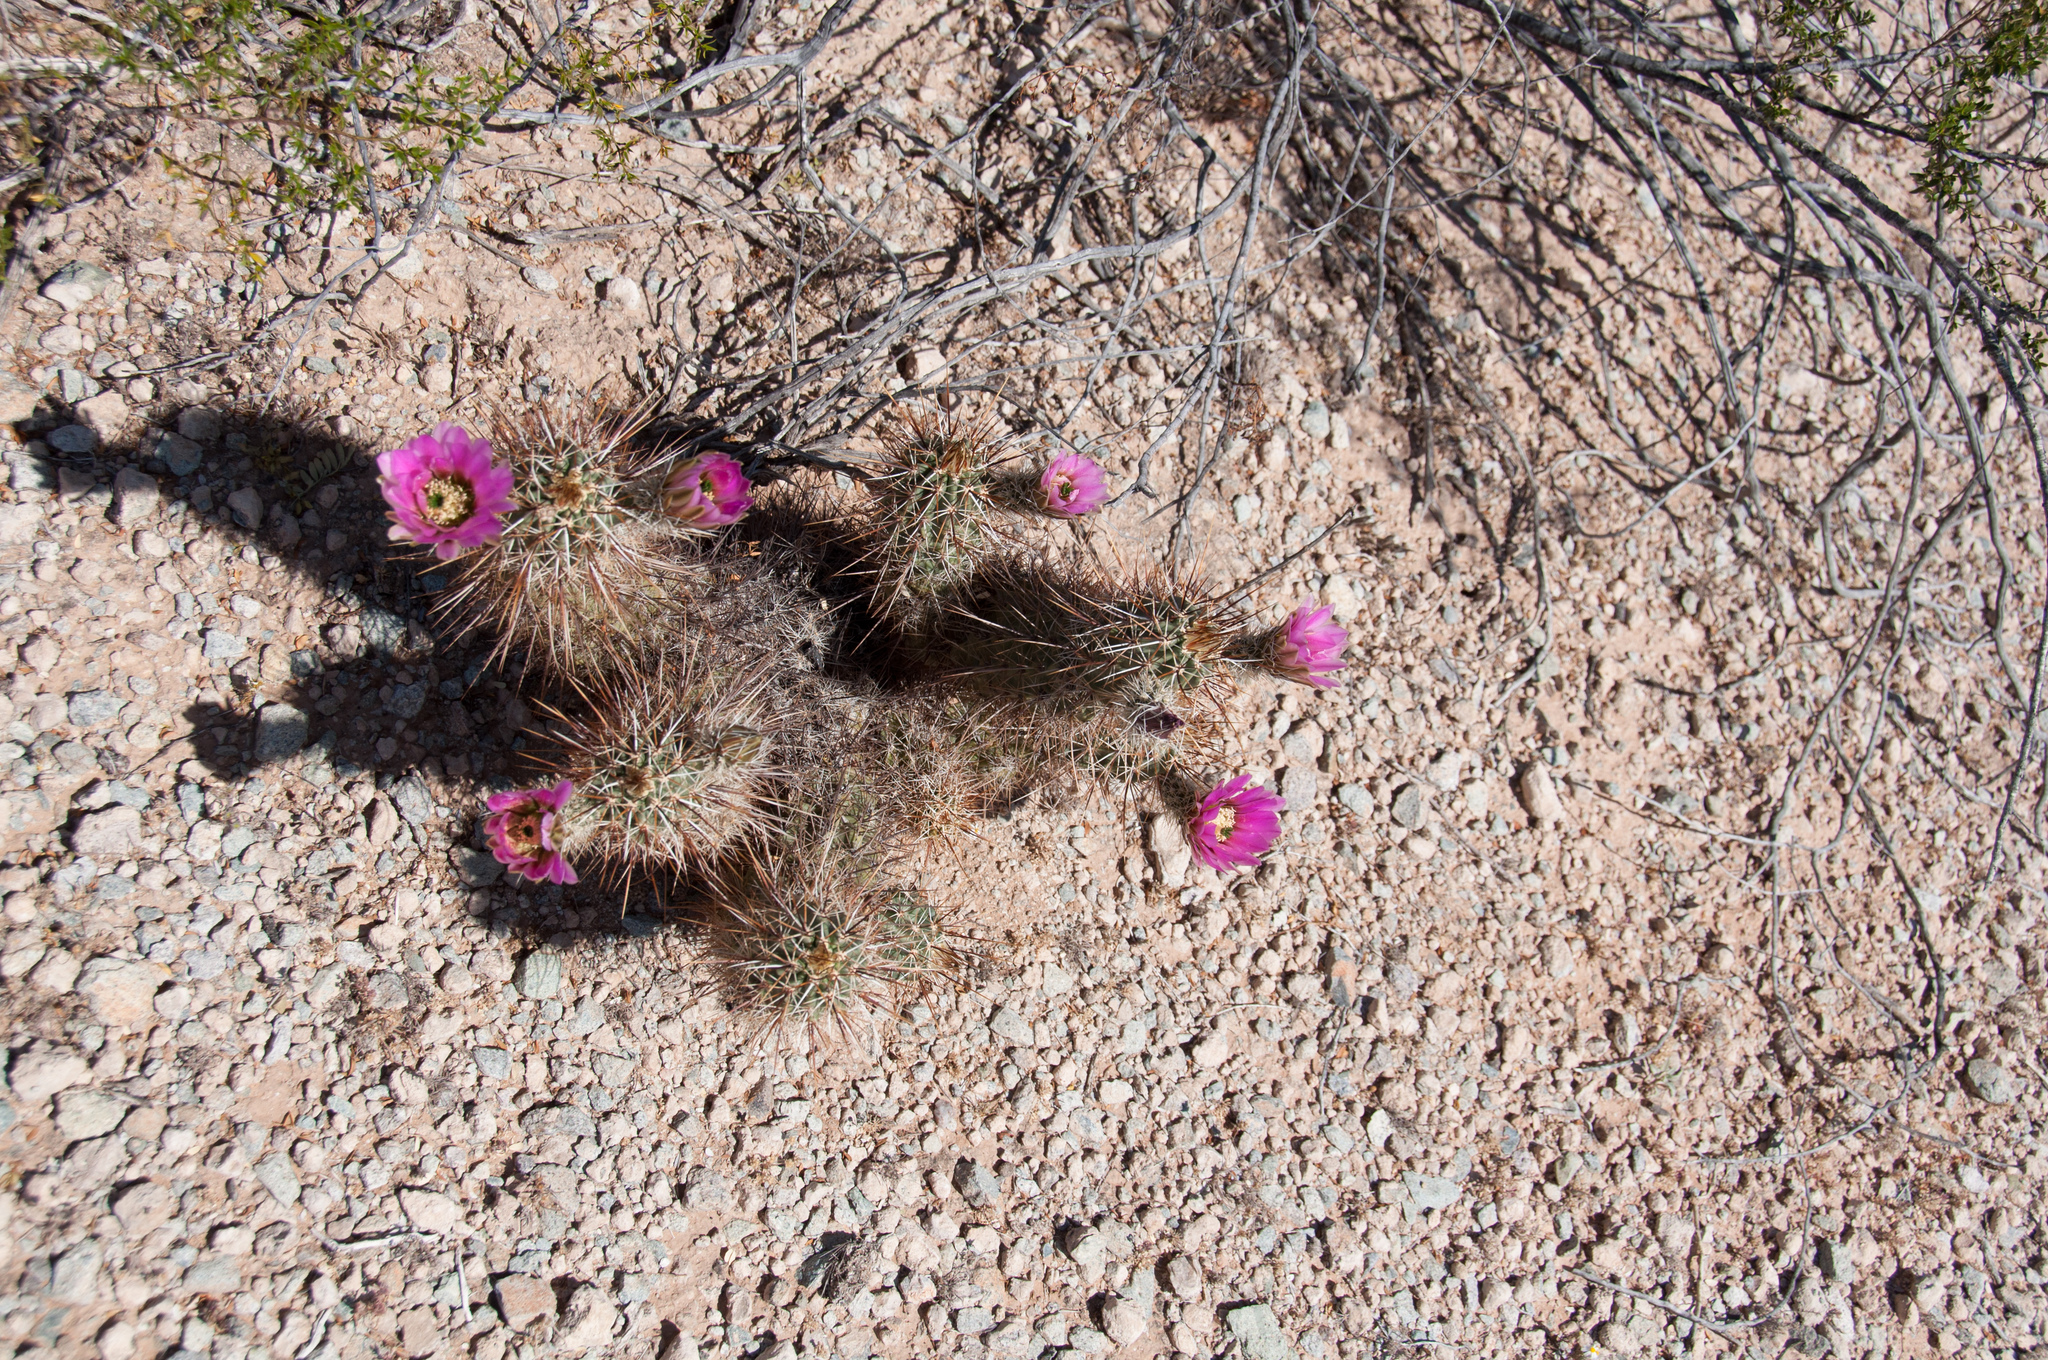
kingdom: Plantae
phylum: Tracheophyta
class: Magnoliopsida
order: Caryophyllales
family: Cactaceae
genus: Echinocereus
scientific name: Echinocereus fasciculatus
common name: Bundle hedgehog
